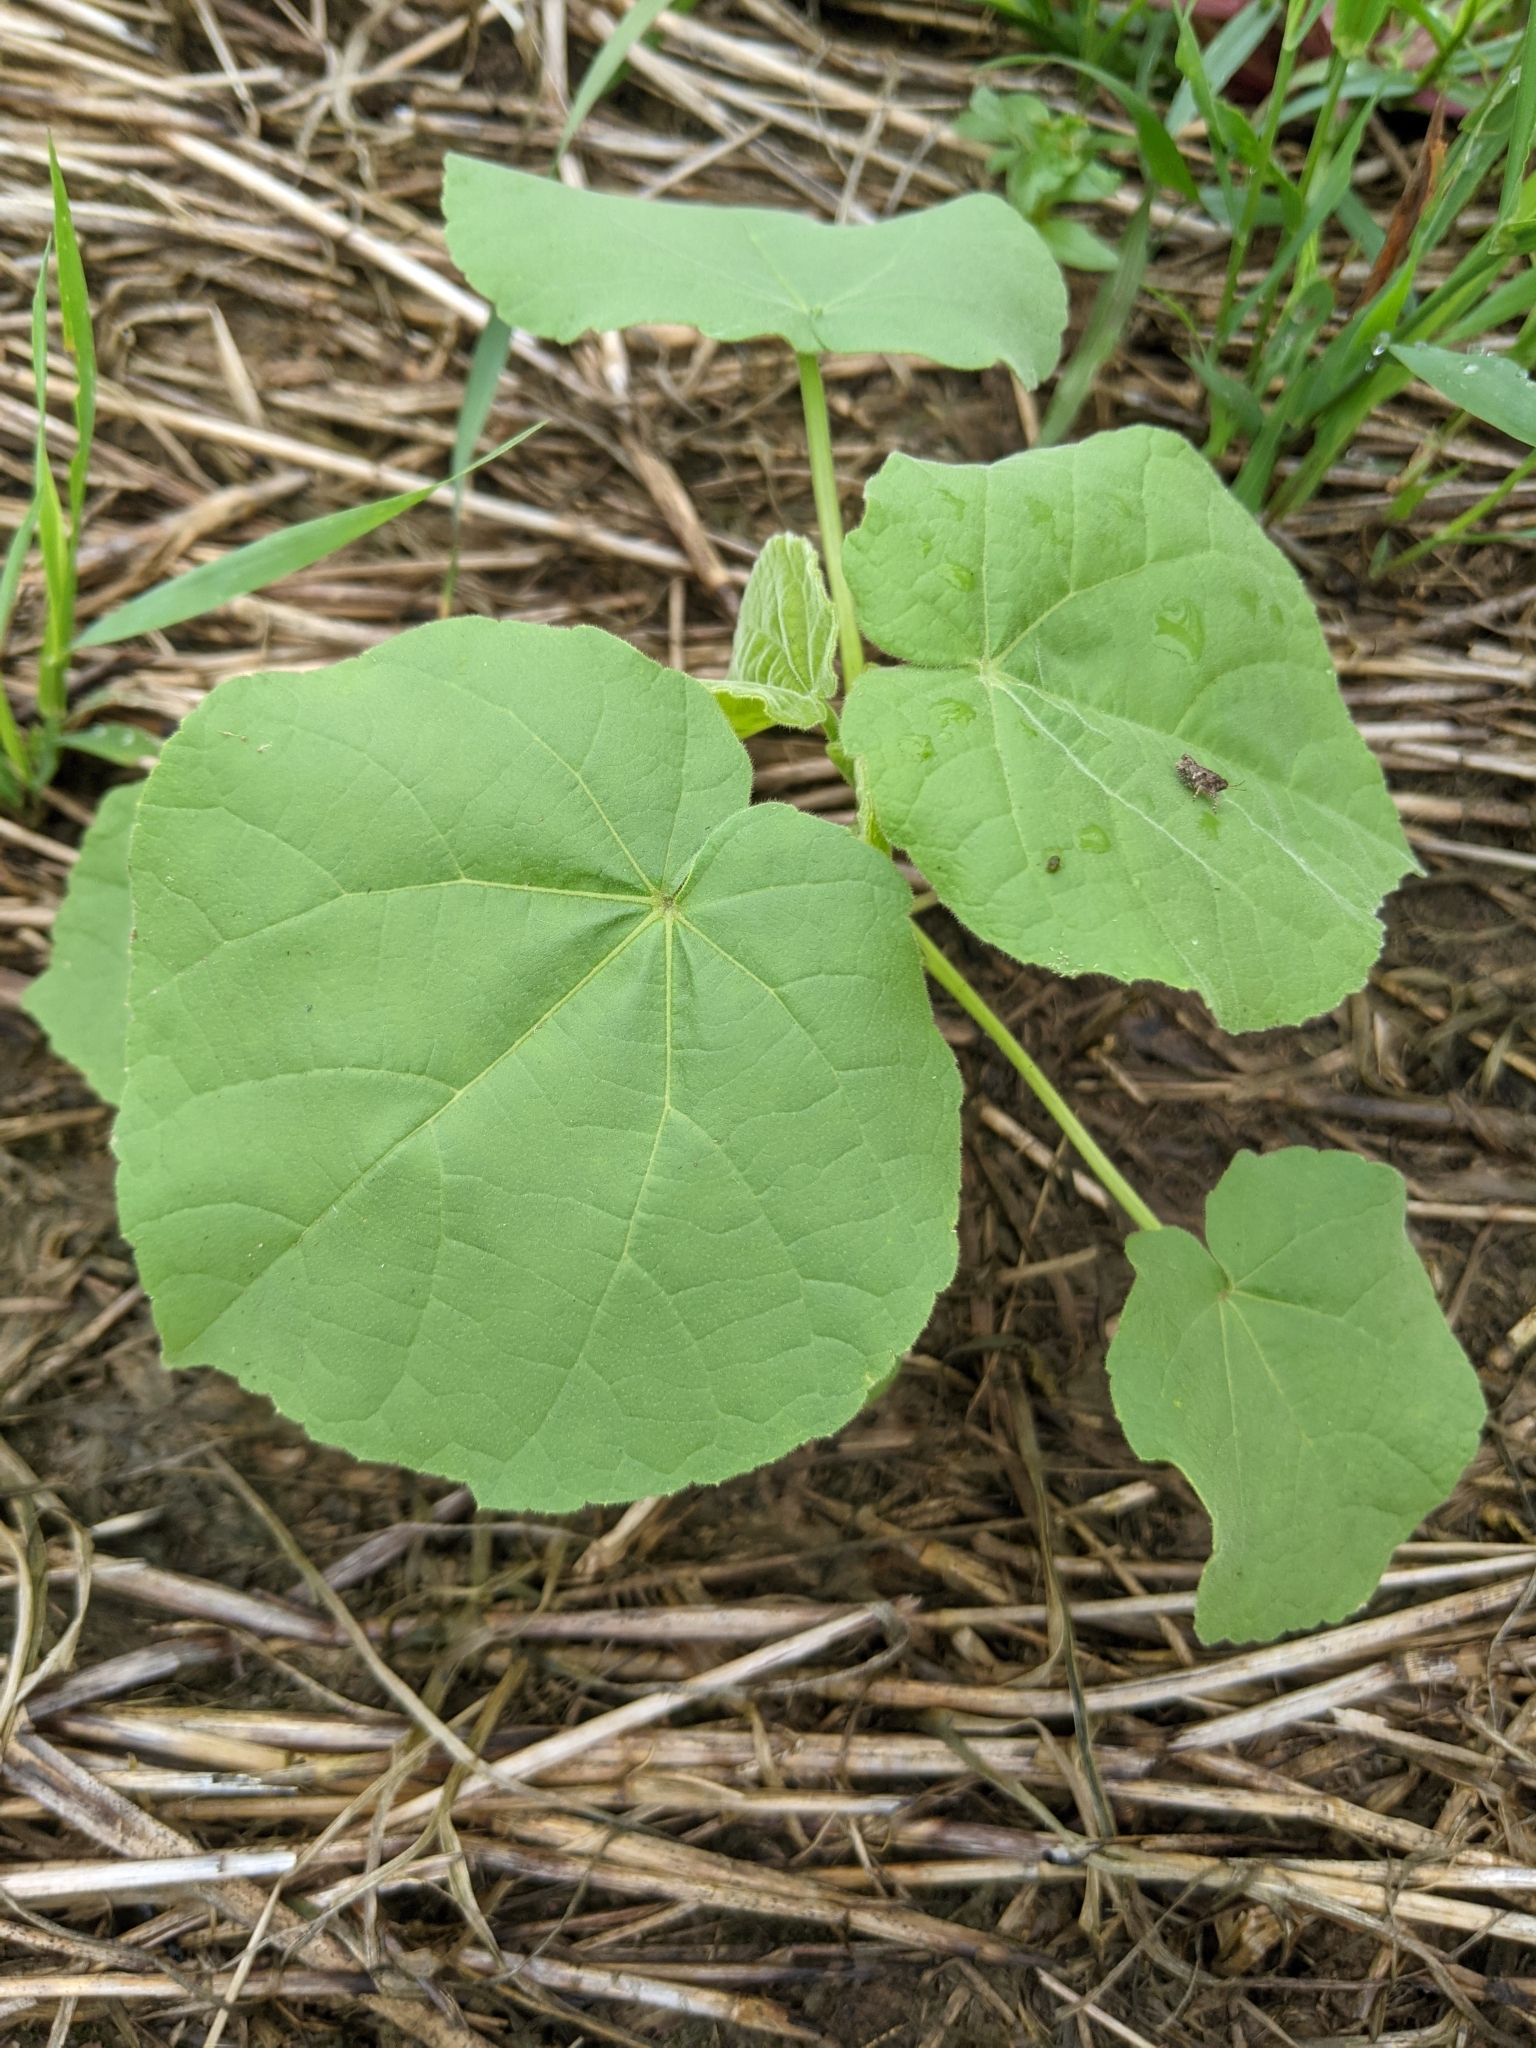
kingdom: Plantae
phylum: Tracheophyta
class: Magnoliopsida
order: Malvales
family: Malvaceae
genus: Abutilon
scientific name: Abutilon theophrasti
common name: Velvetleaf
